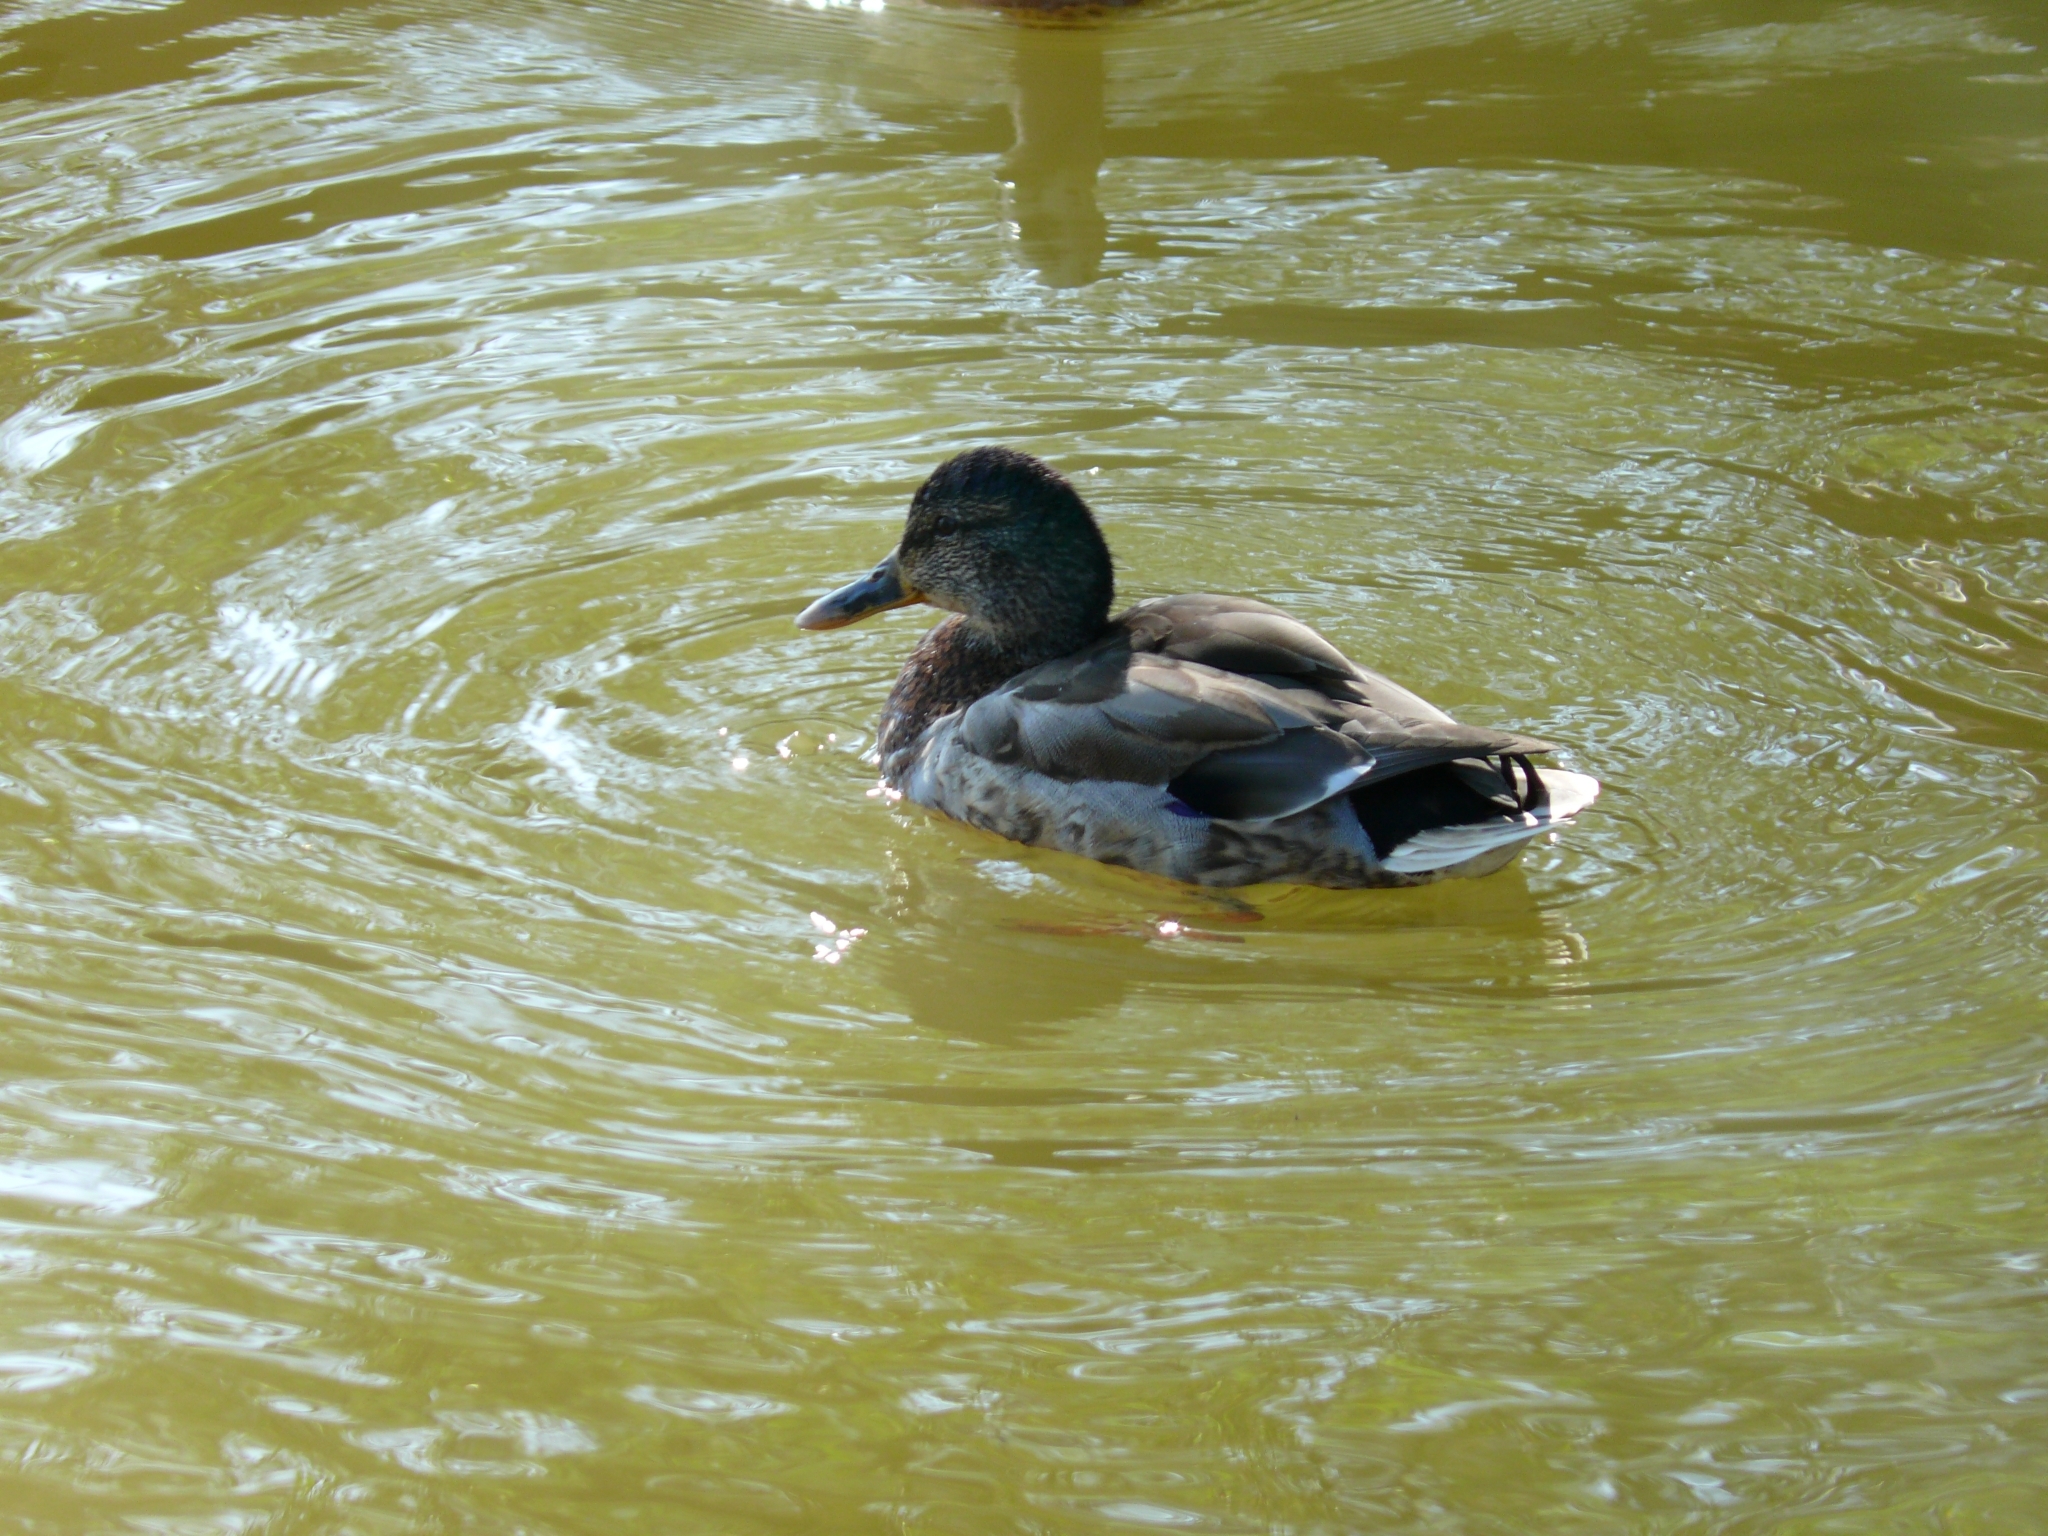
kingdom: Animalia
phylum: Chordata
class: Aves
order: Anseriformes
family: Anatidae
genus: Anas
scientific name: Anas platyrhynchos
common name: Mallard
